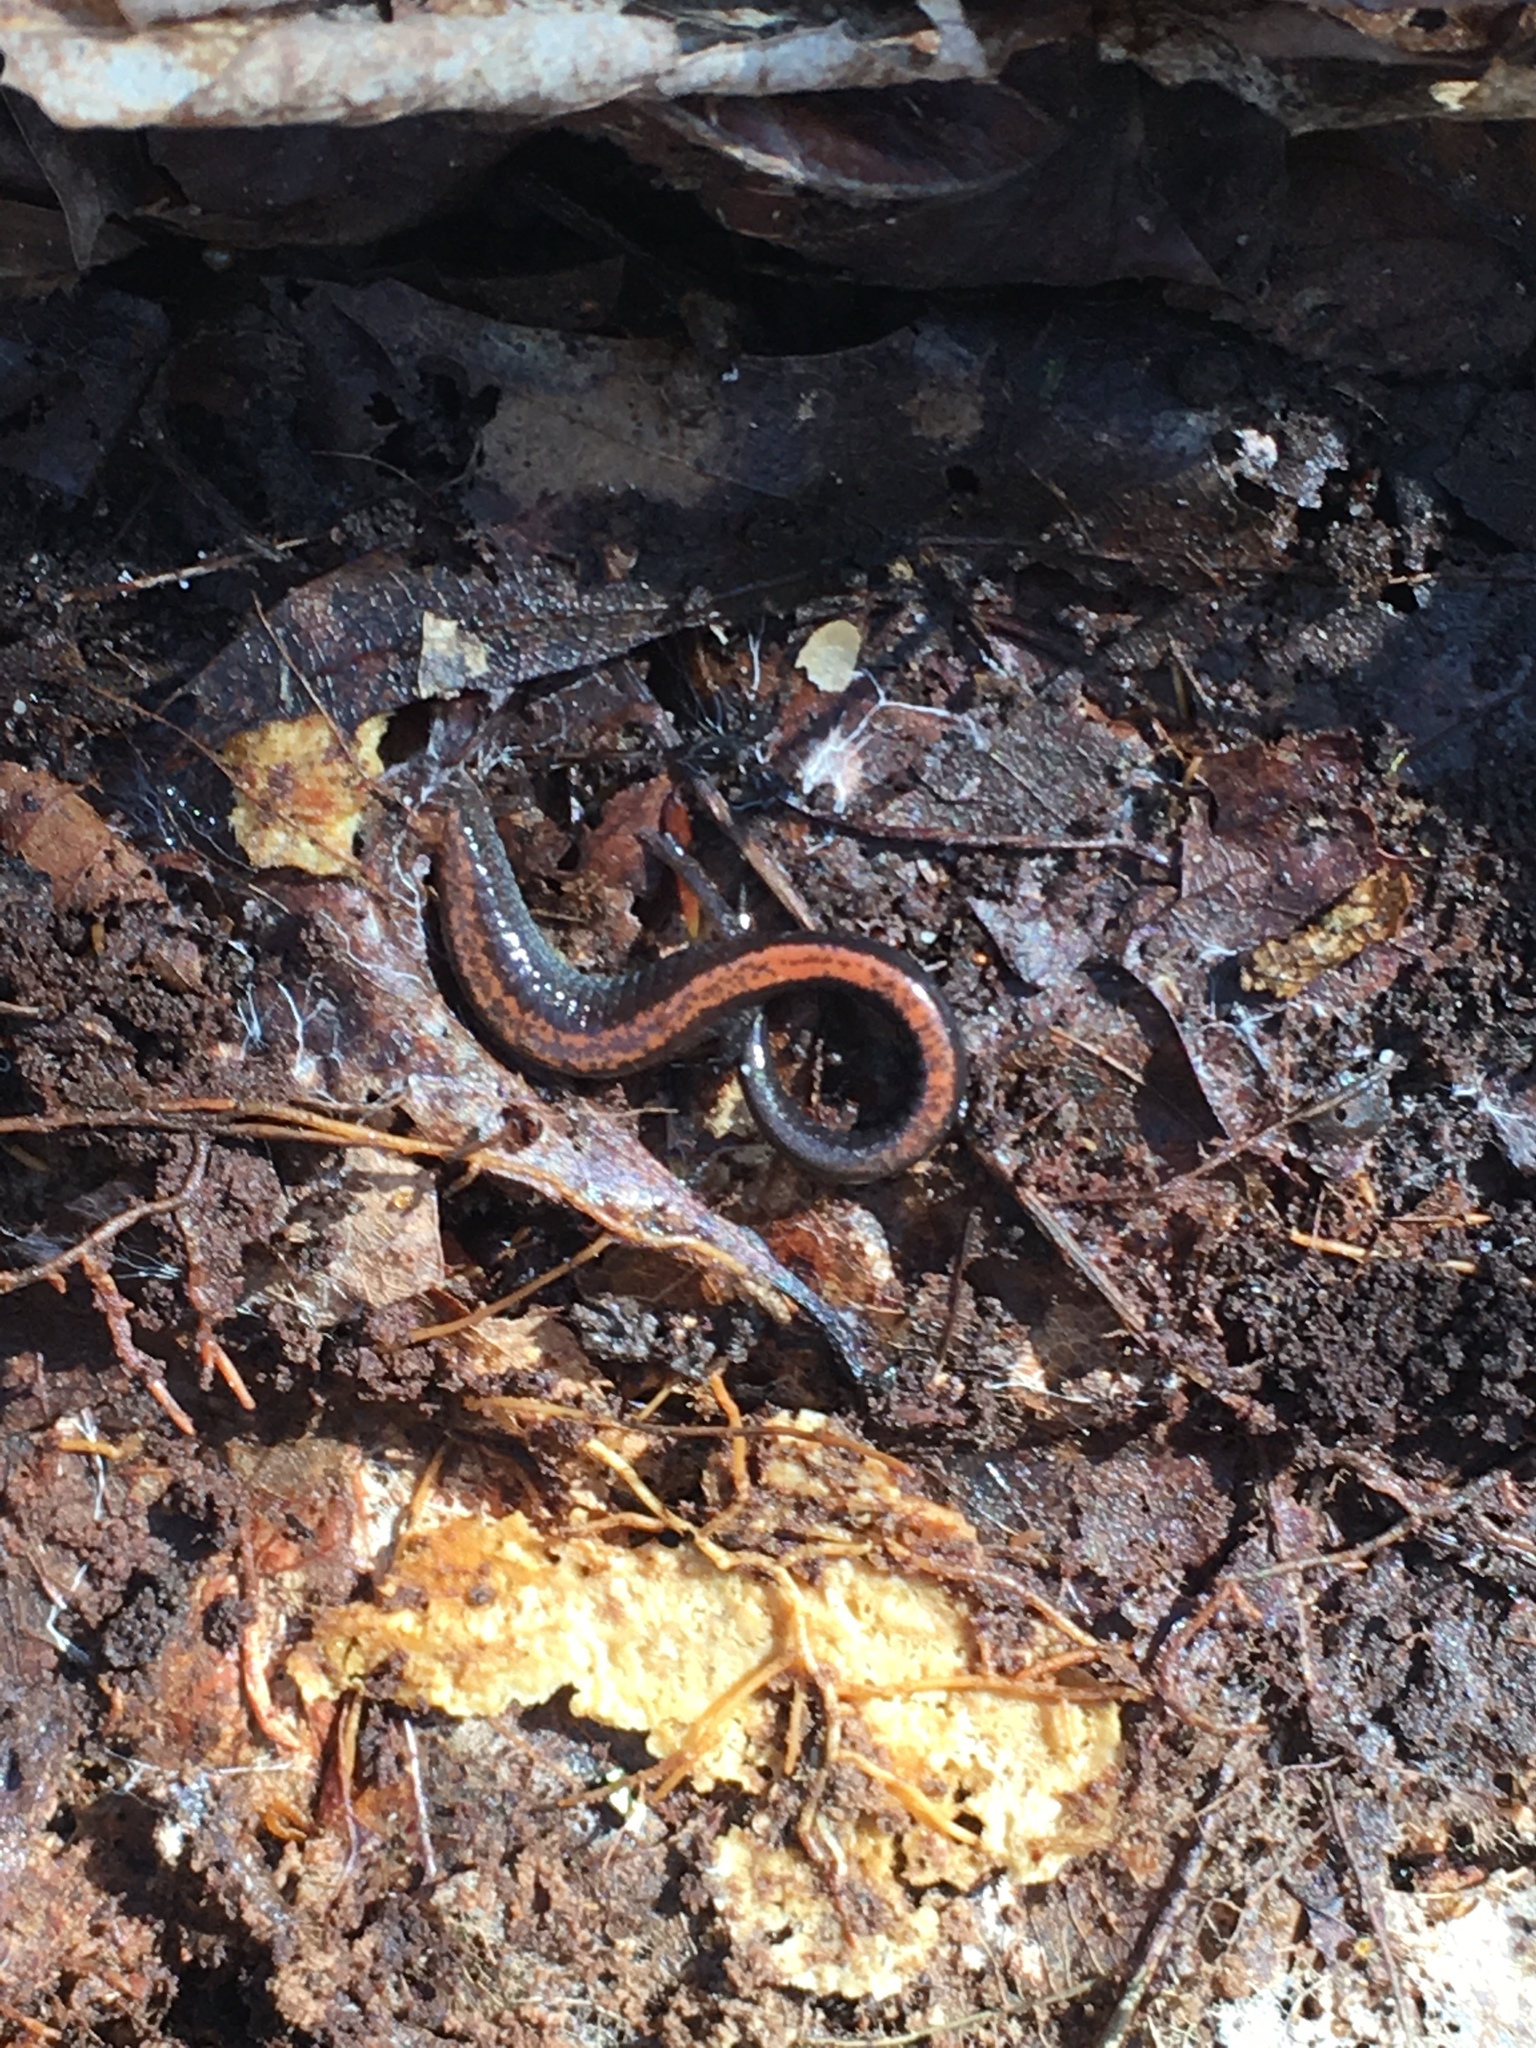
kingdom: Animalia
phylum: Chordata
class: Amphibia
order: Caudata
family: Plethodontidae
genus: Plethodon
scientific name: Plethodon cinereus
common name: Redback salamander
